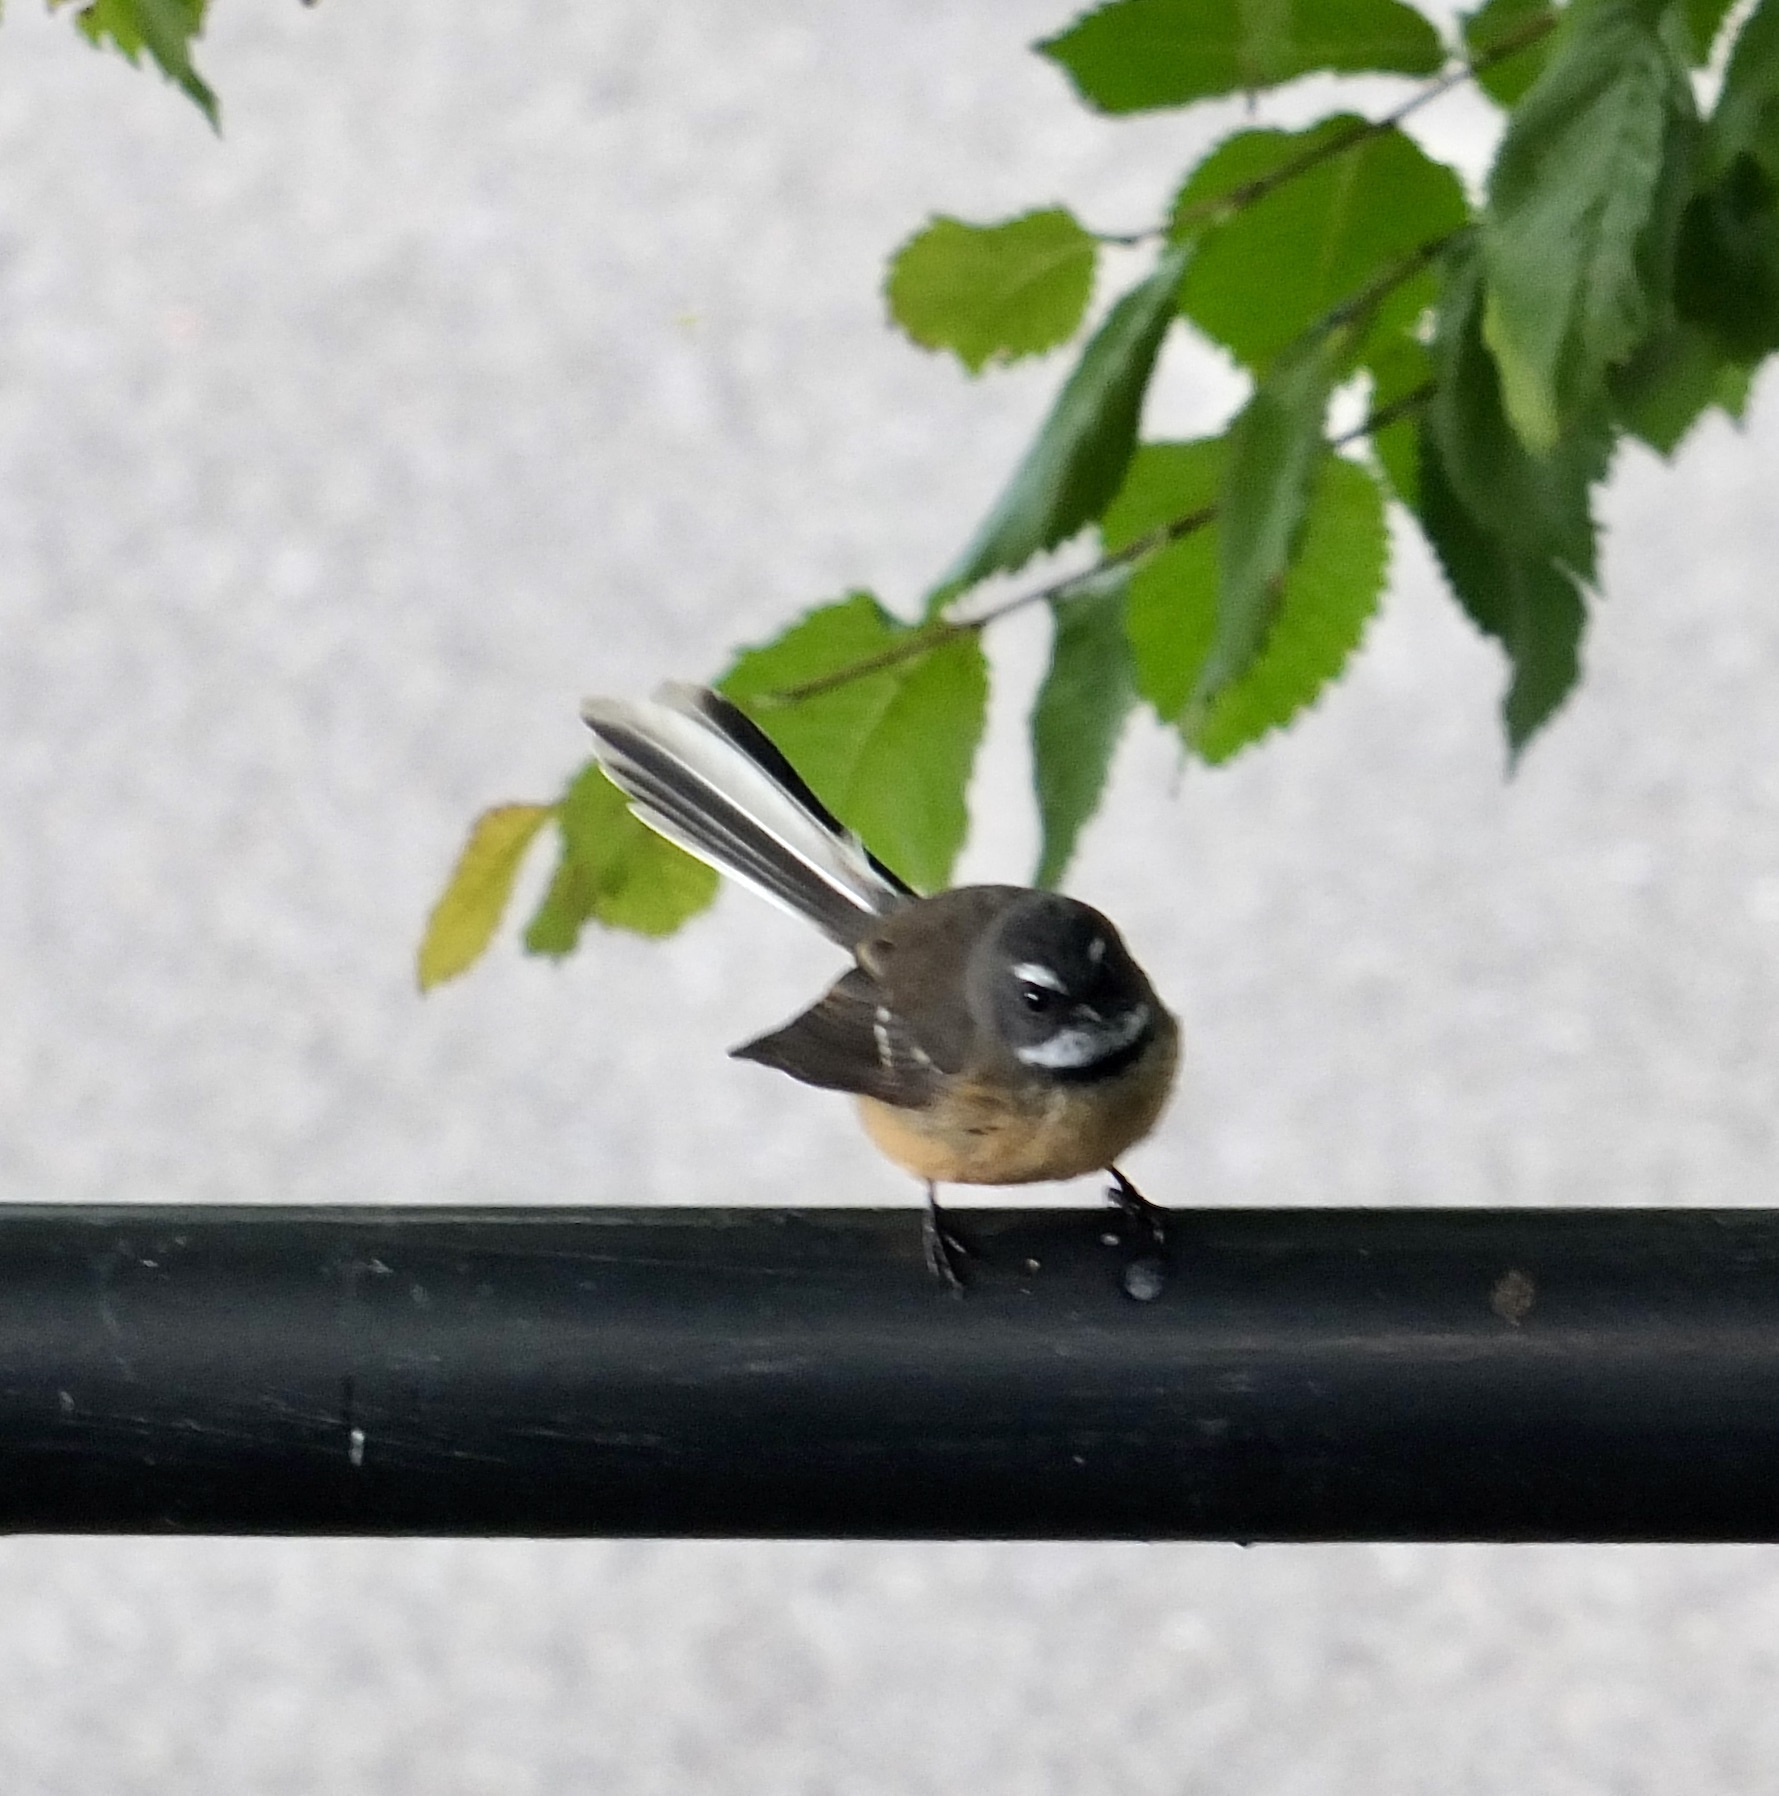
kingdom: Animalia
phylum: Chordata
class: Aves
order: Passeriformes
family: Rhipiduridae
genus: Rhipidura
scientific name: Rhipidura fuliginosa
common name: New zealand fantail
